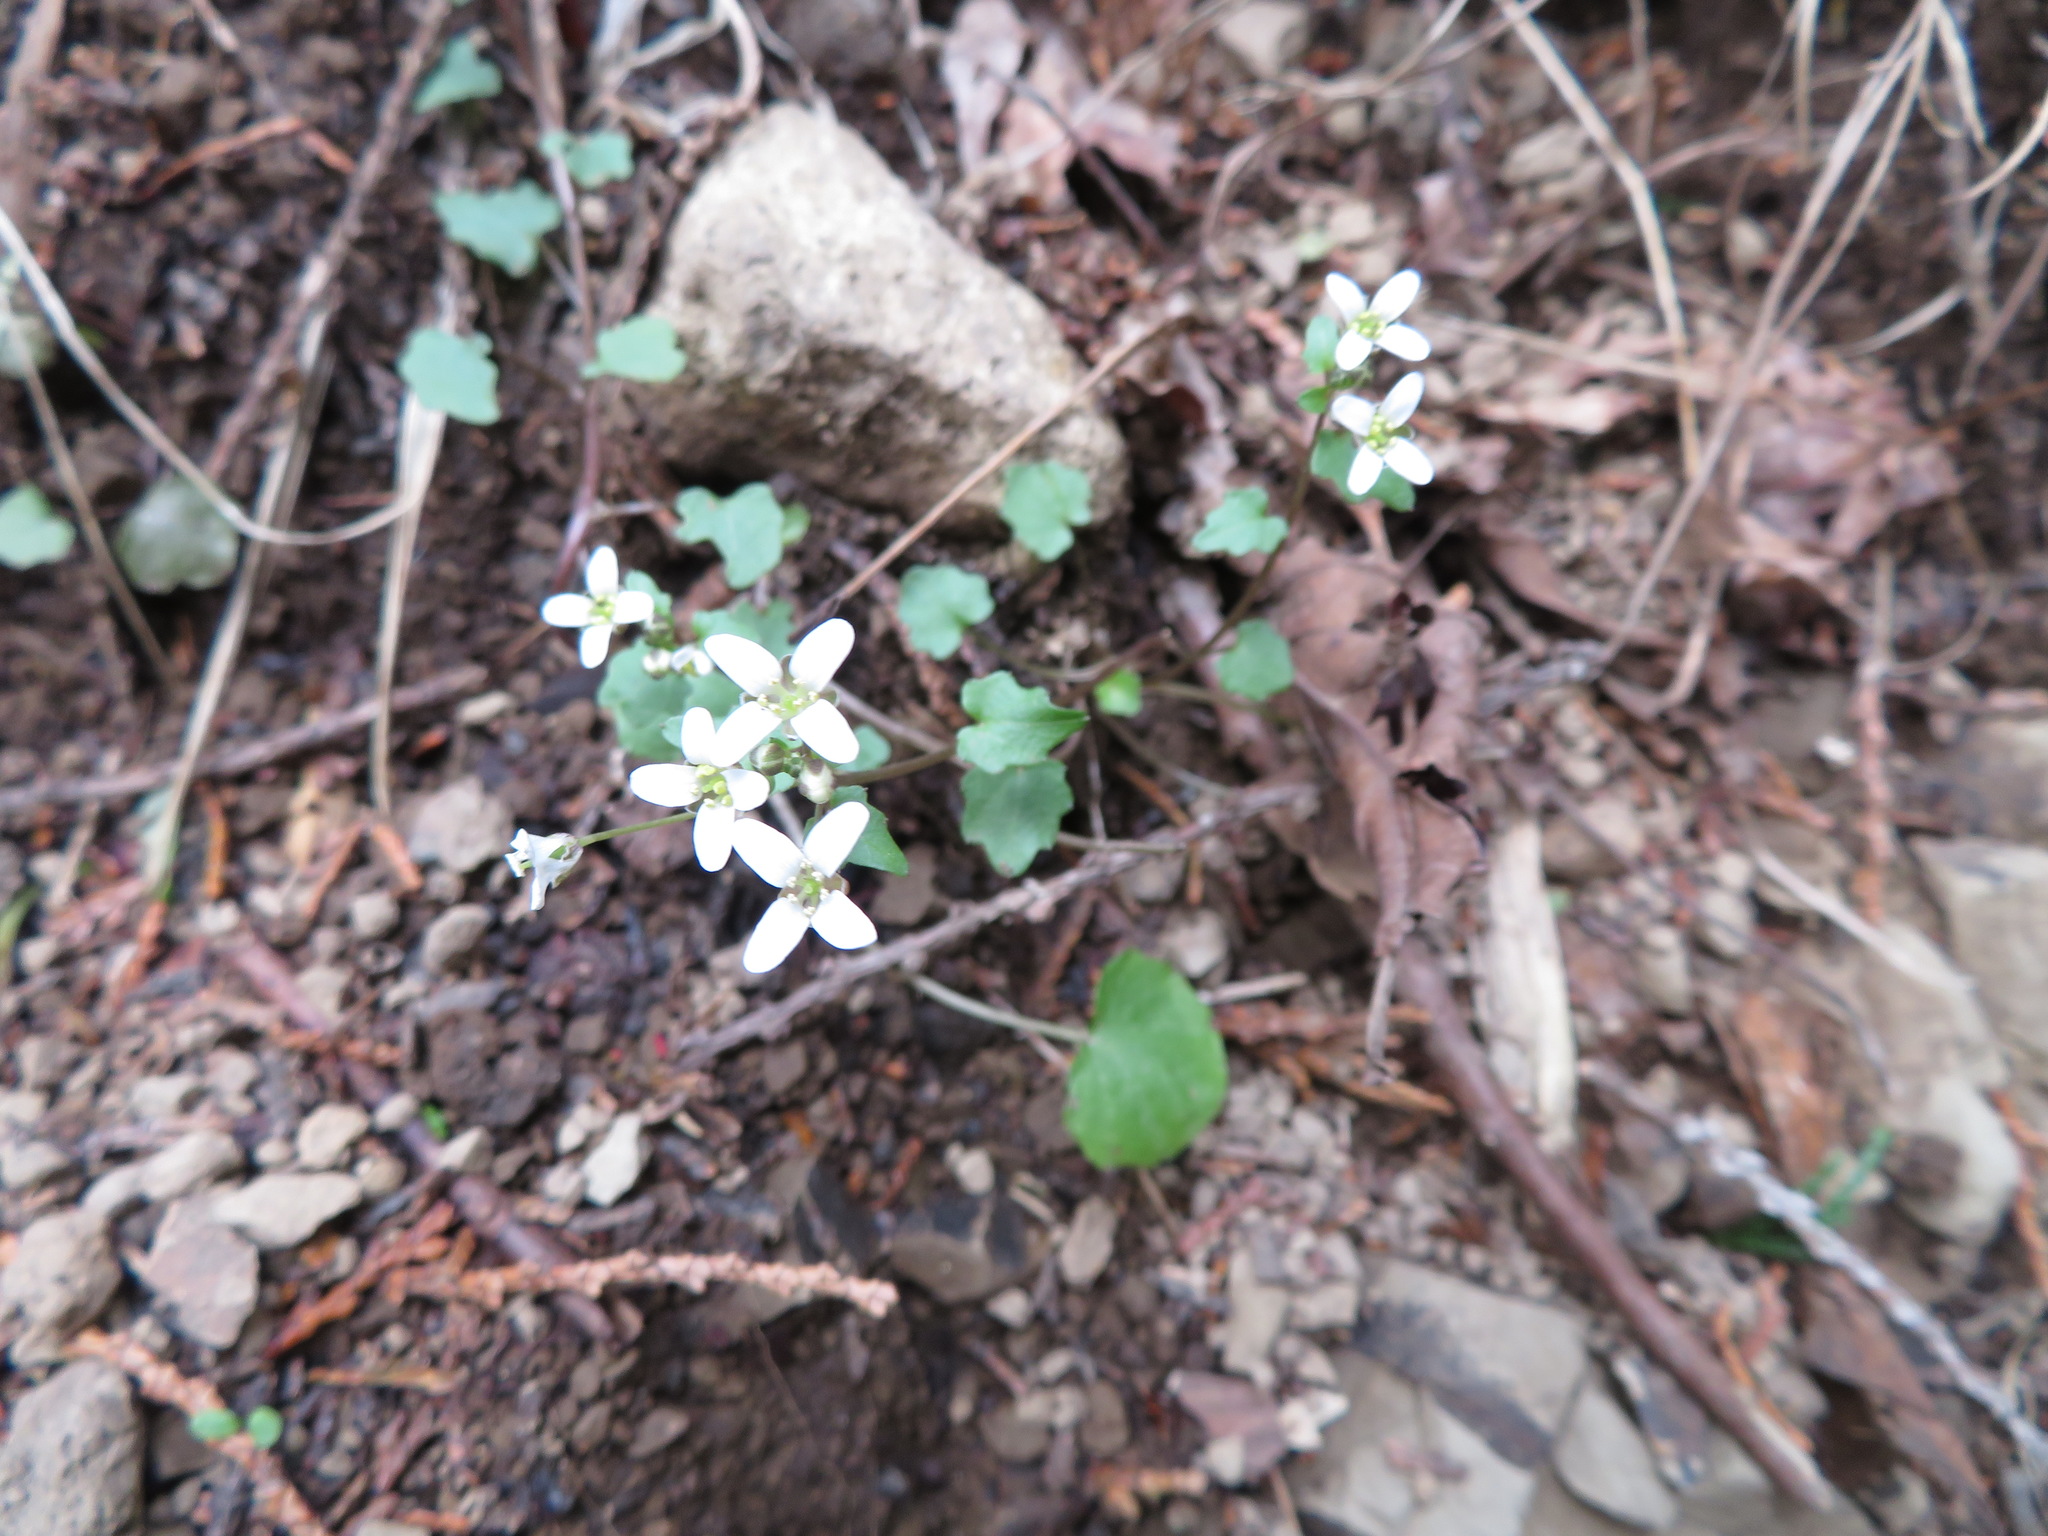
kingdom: Plantae
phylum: Tracheophyta
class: Magnoliopsida
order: Brassicales
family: Brassicaceae
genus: Eutrema
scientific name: Eutrema tenue
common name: Lesser wasabi
